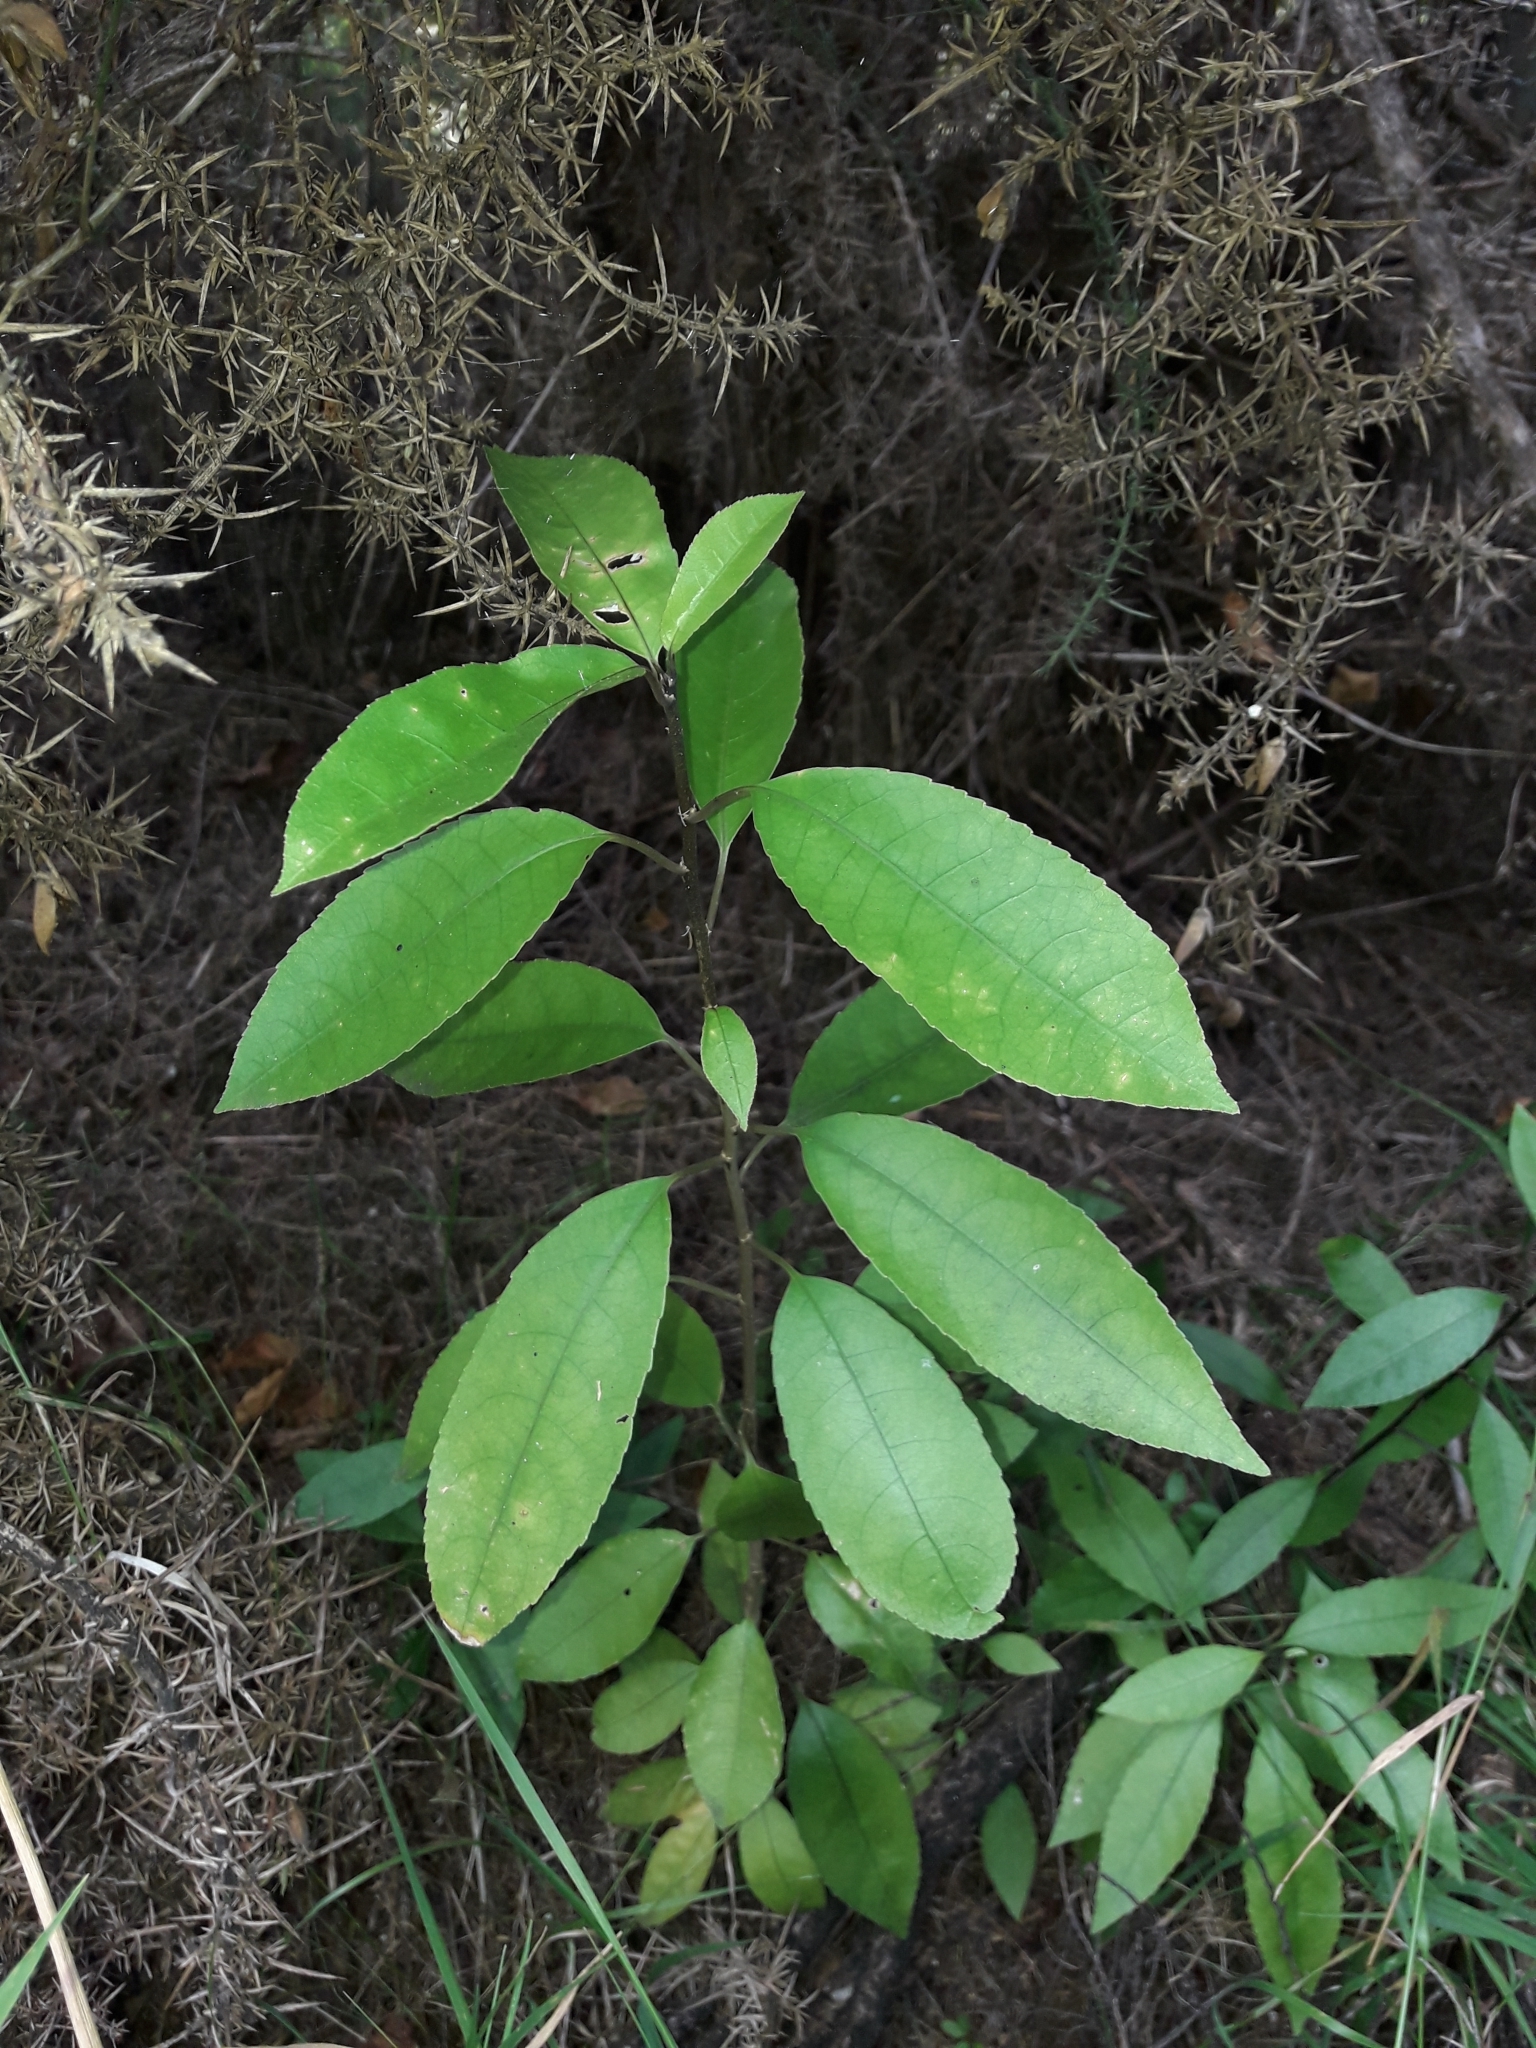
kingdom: Plantae
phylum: Tracheophyta
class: Magnoliopsida
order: Malpighiales
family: Violaceae
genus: Melicytus
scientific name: Melicytus ramiflorus
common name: Mahoe
